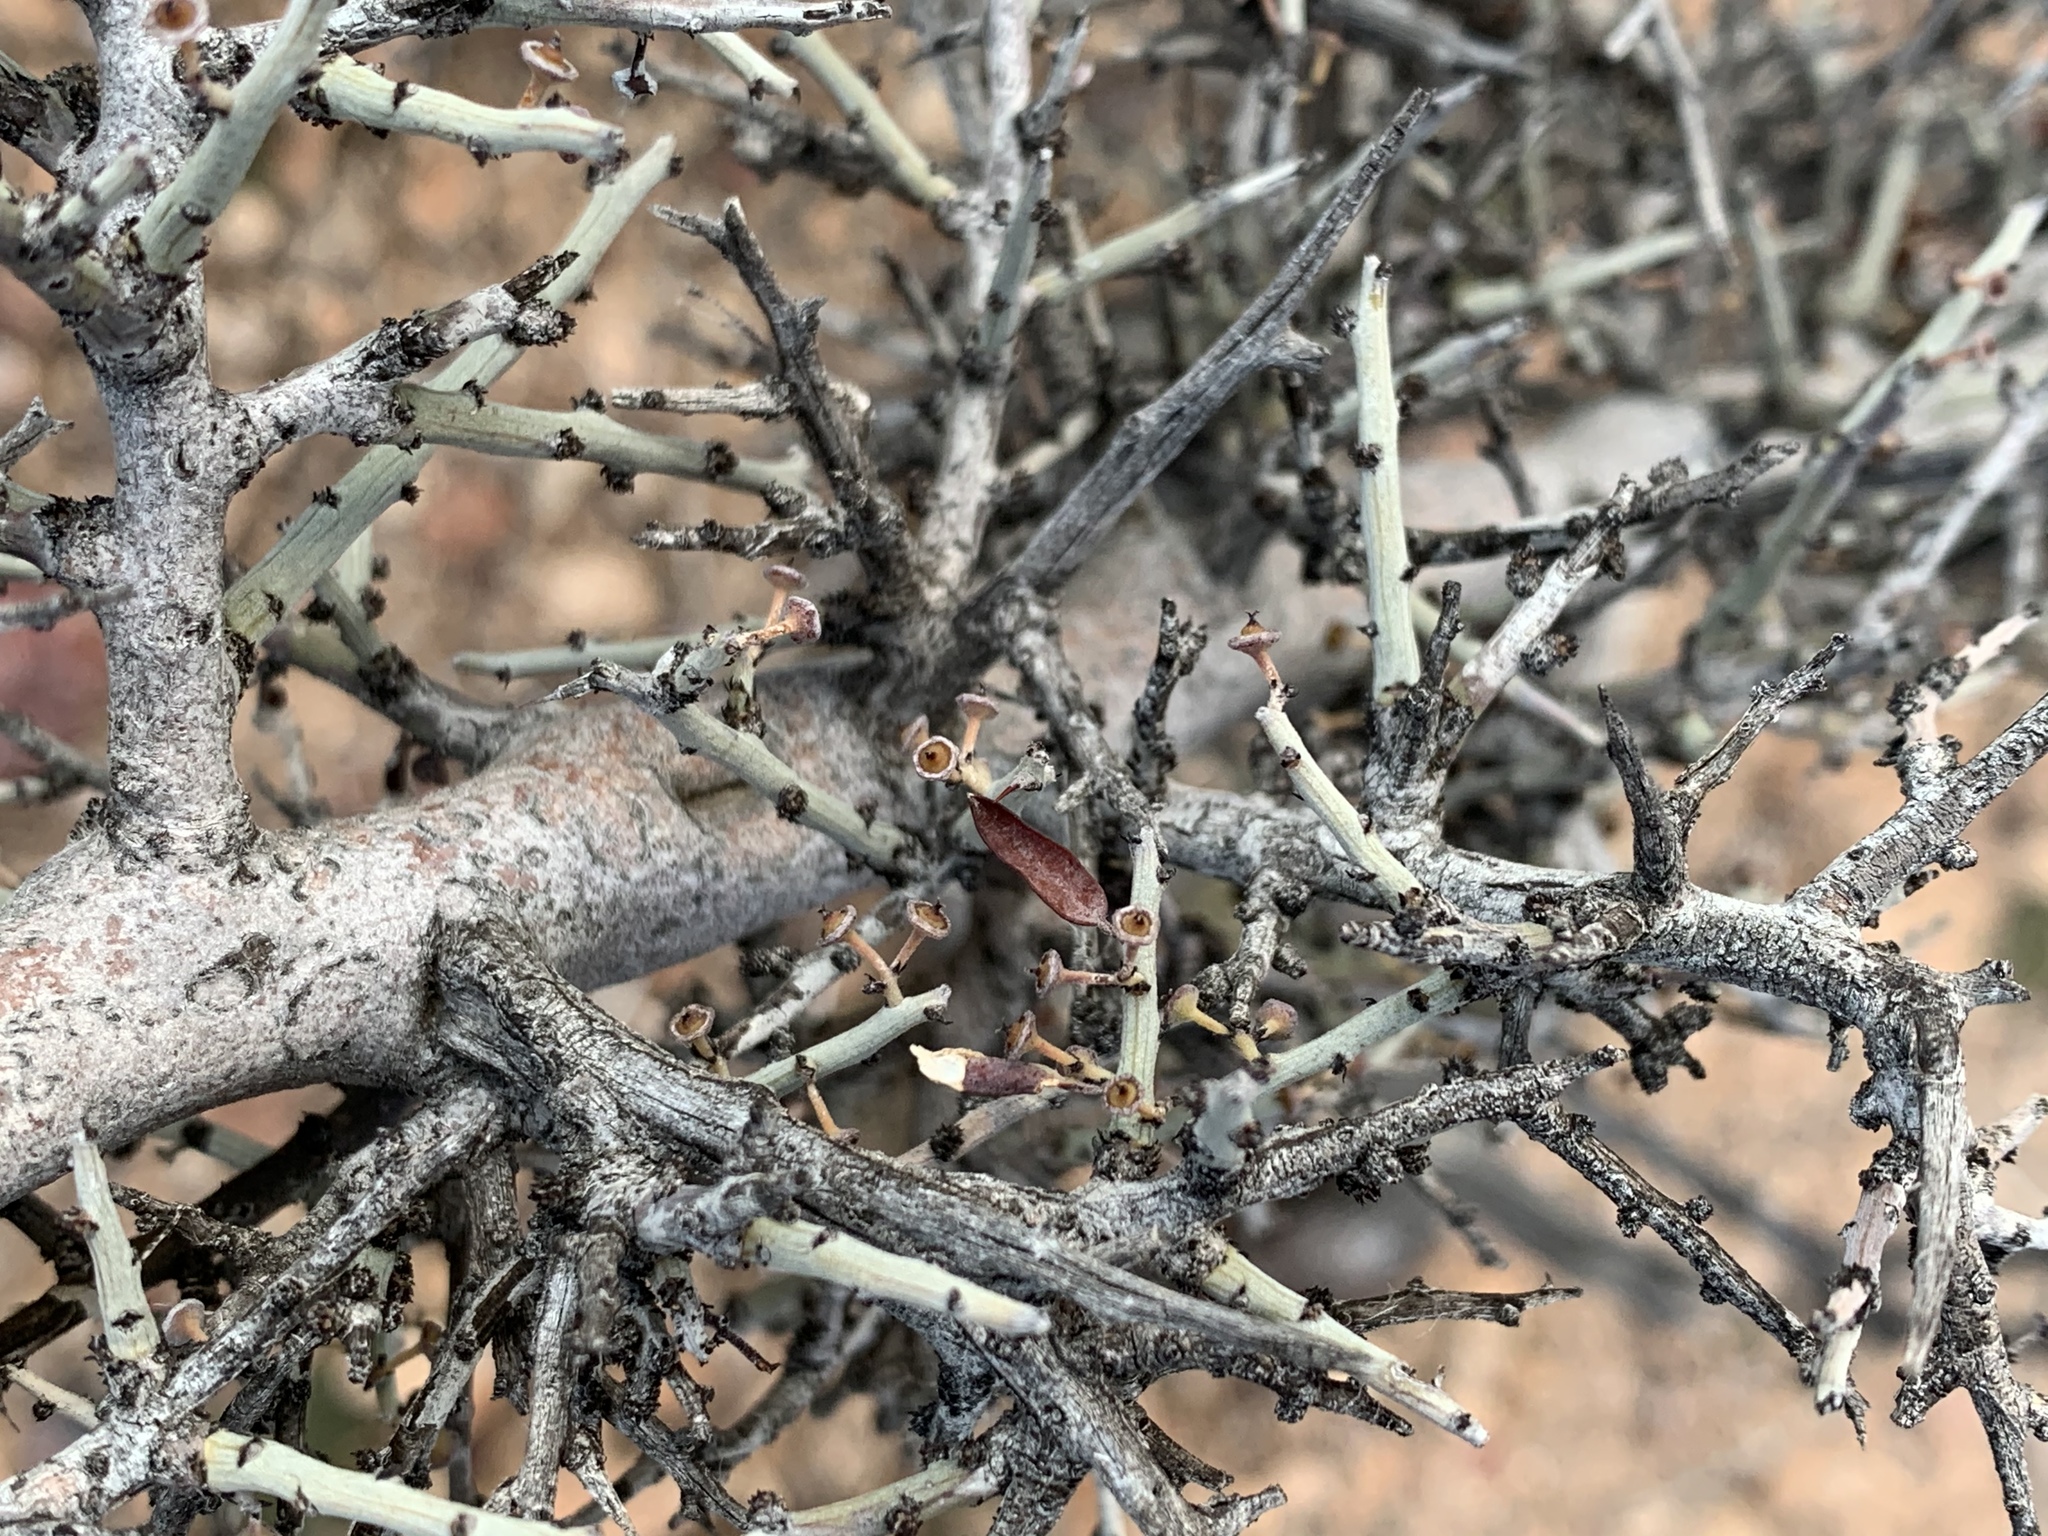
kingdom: Plantae
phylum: Tracheophyta
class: Magnoliopsida
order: Rosales
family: Rhamnaceae
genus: Sarcomphalus
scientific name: Sarcomphalus obtusifolius
